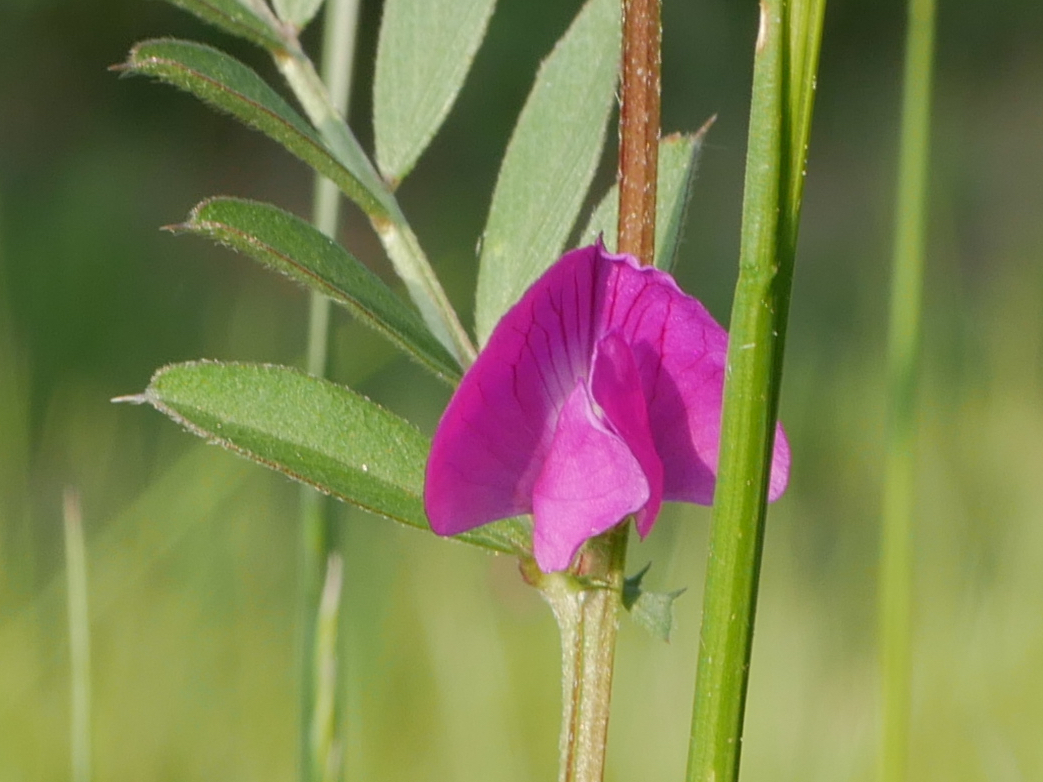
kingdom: Plantae
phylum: Tracheophyta
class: Magnoliopsida
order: Fabales
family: Fabaceae
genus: Vicia
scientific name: Vicia sativa
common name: Garden vetch
